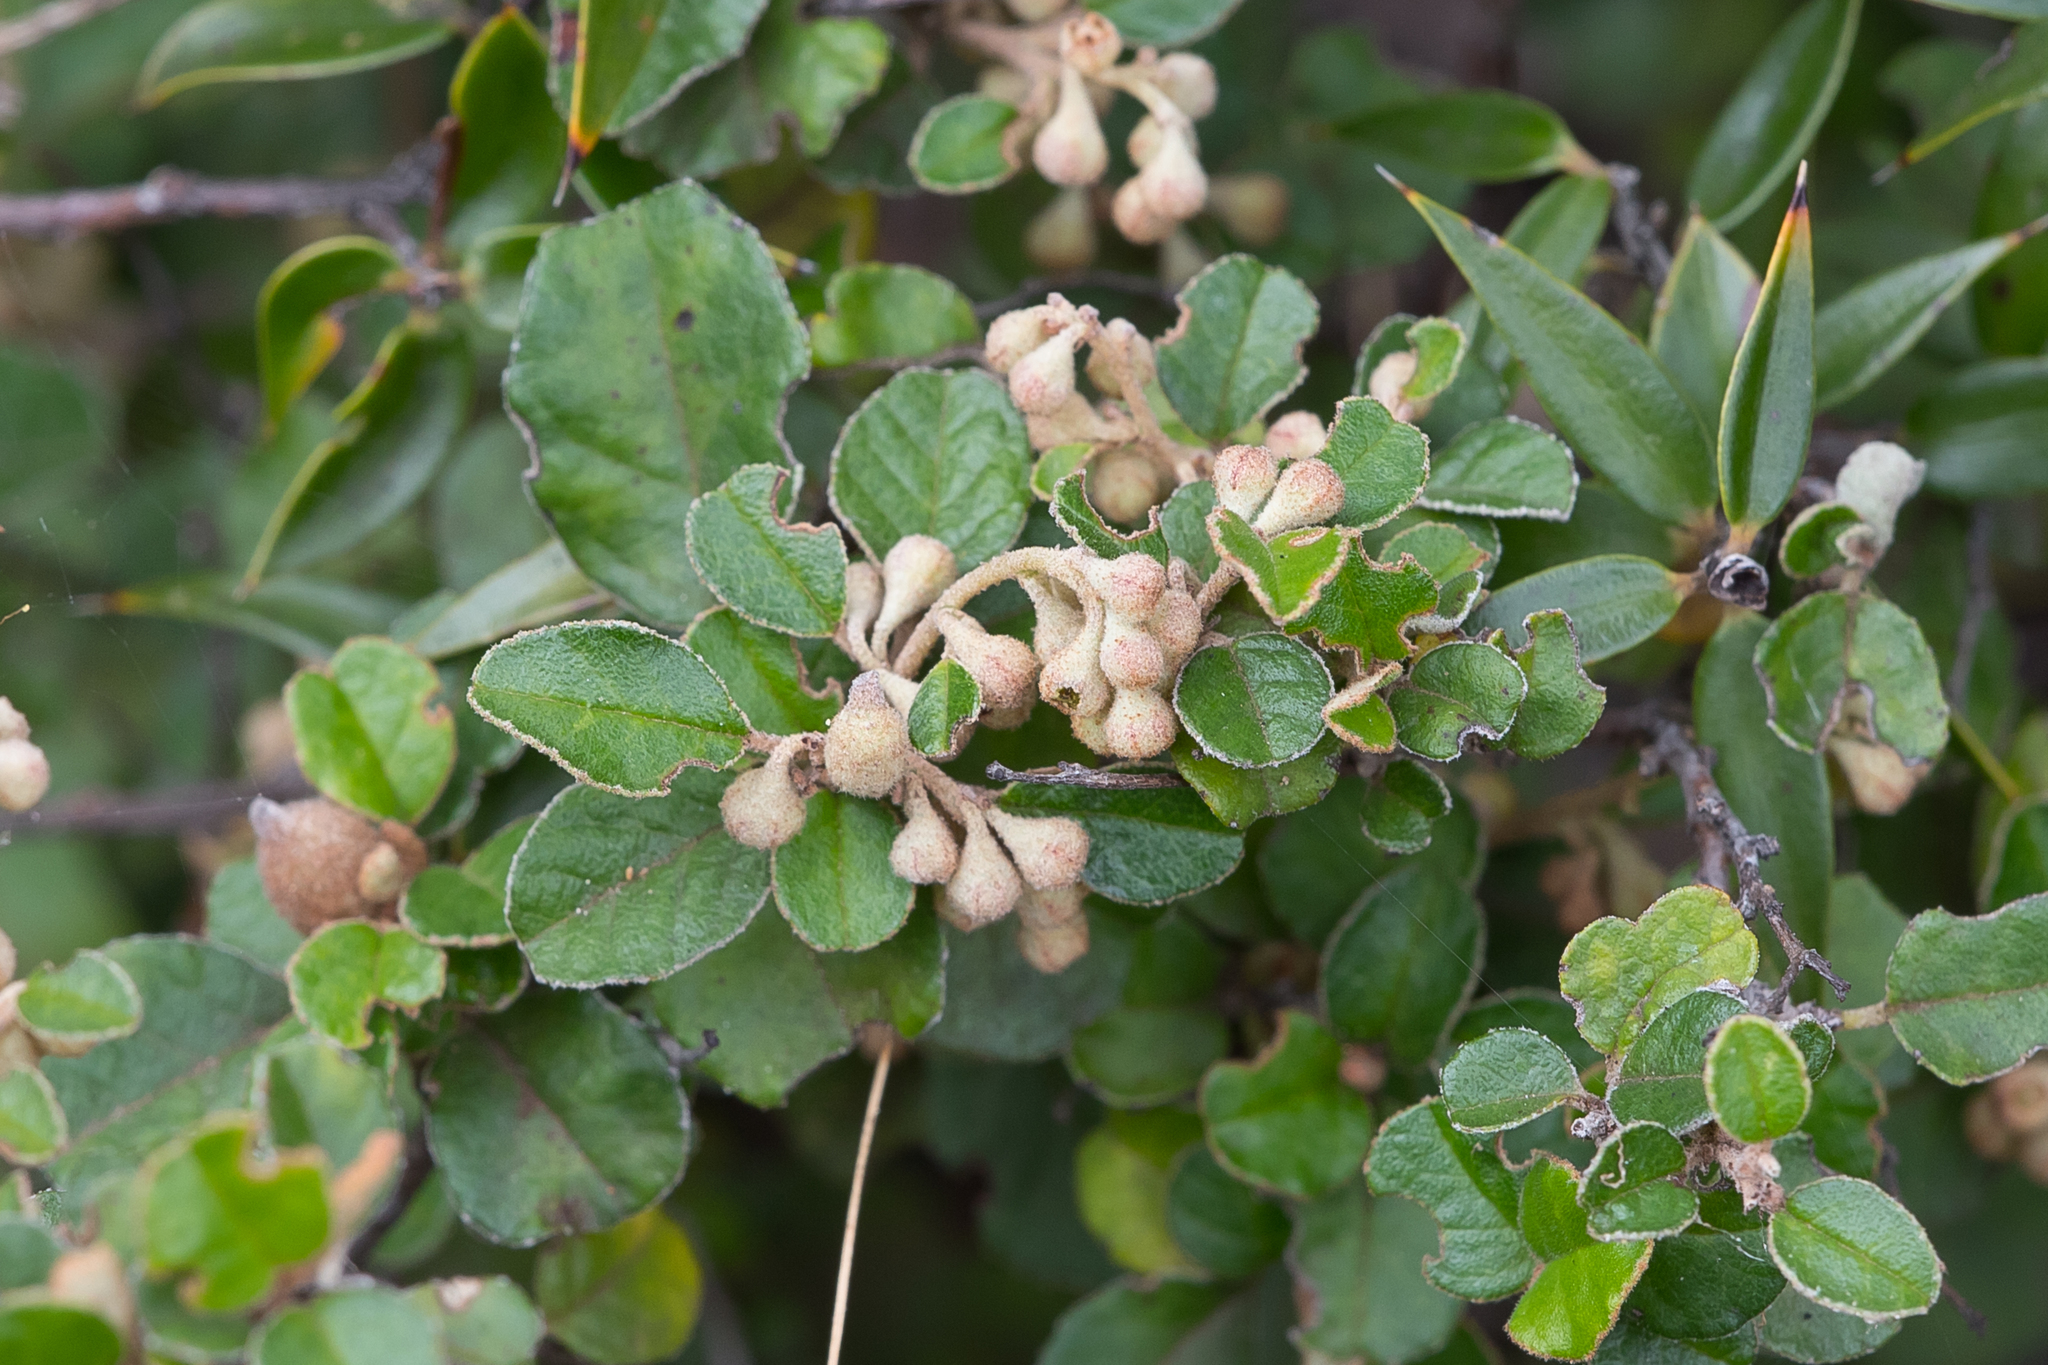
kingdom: Plantae
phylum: Tracheophyta
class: Magnoliopsida
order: Rosales
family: Rhamnaceae
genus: Pomaderris
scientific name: Pomaderris paniculosa
